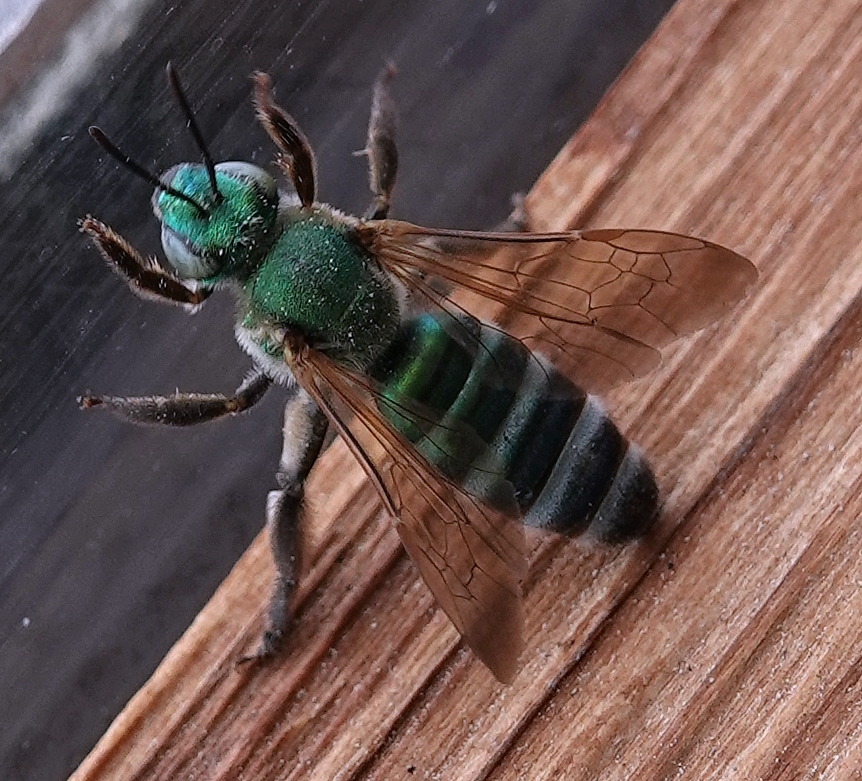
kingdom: Animalia
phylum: Arthropoda
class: Insecta
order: Hymenoptera
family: Halictidae
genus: Agapostemon
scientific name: Agapostemon splendens
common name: Brown-winged striped sweat bee
